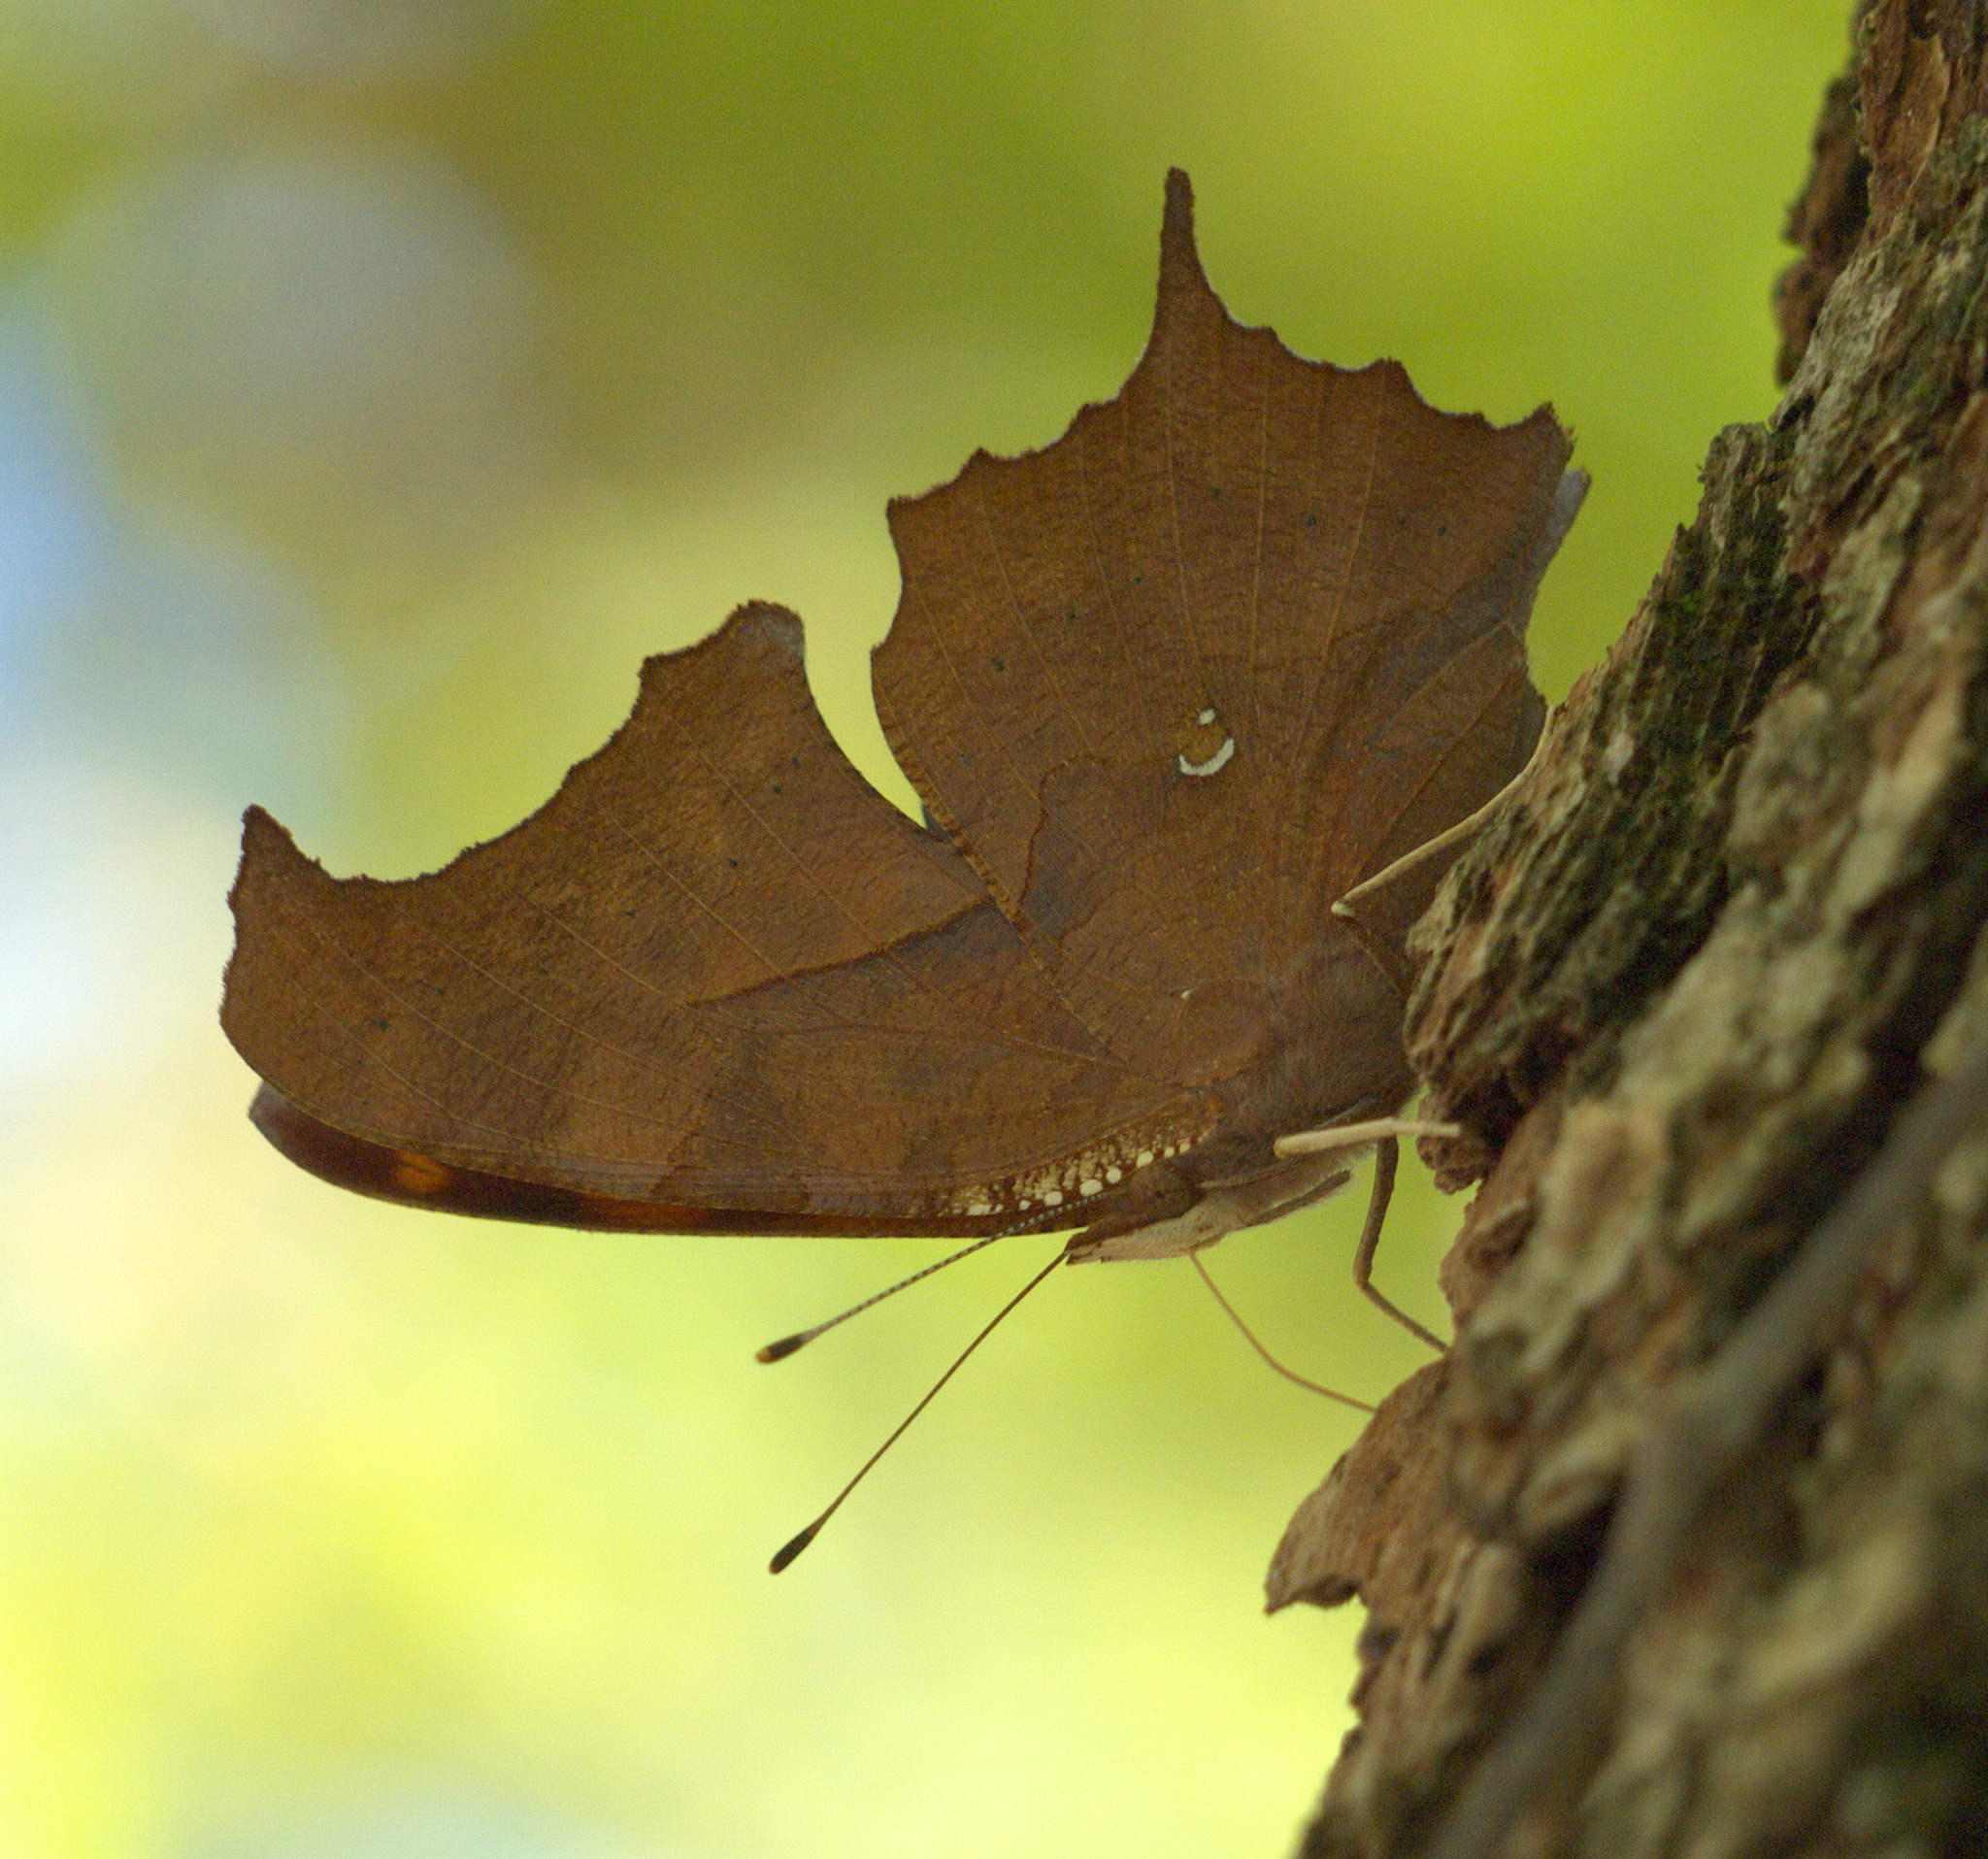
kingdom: Animalia
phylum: Arthropoda
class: Insecta
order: Lepidoptera
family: Nymphalidae
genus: Polygonia
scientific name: Polygonia interrogationis
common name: Question mark
